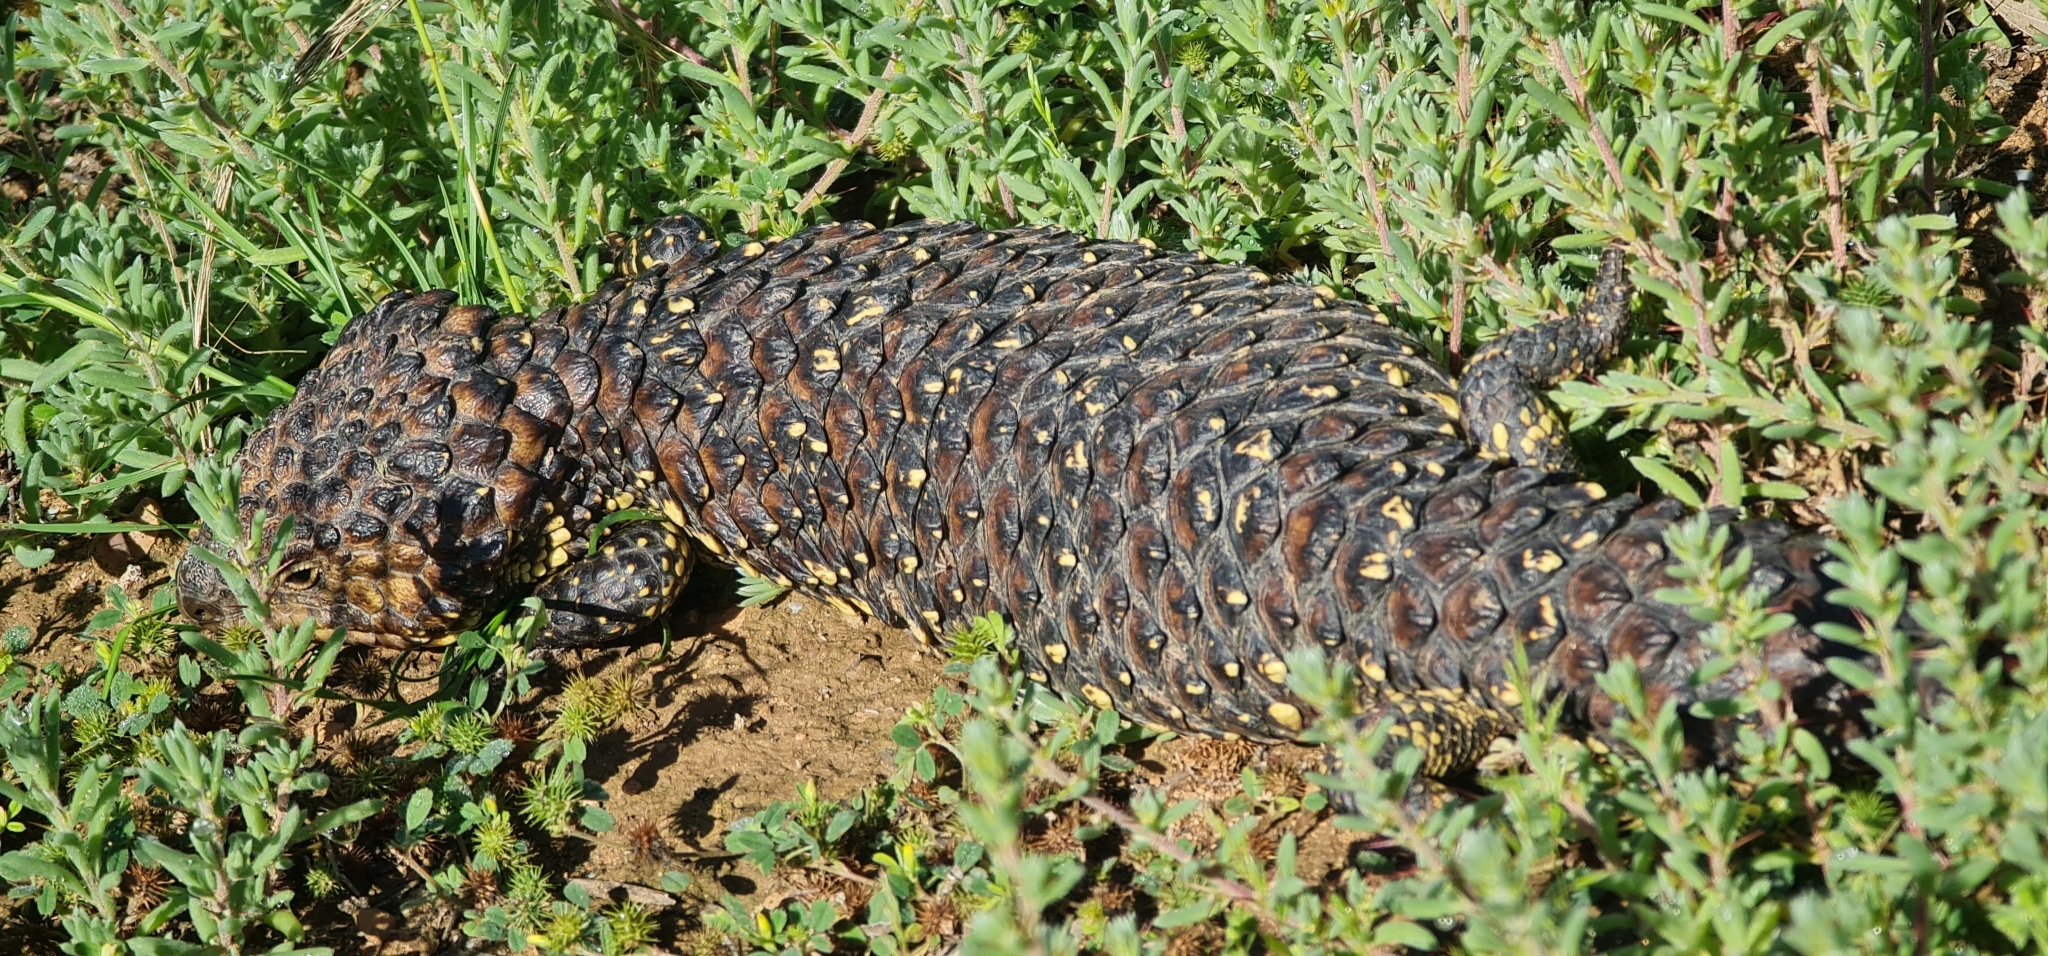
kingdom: Animalia
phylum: Chordata
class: Squamata
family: Scincidae
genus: Tiliqua
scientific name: Tiliqua rugosa
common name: Pinecone lizard
